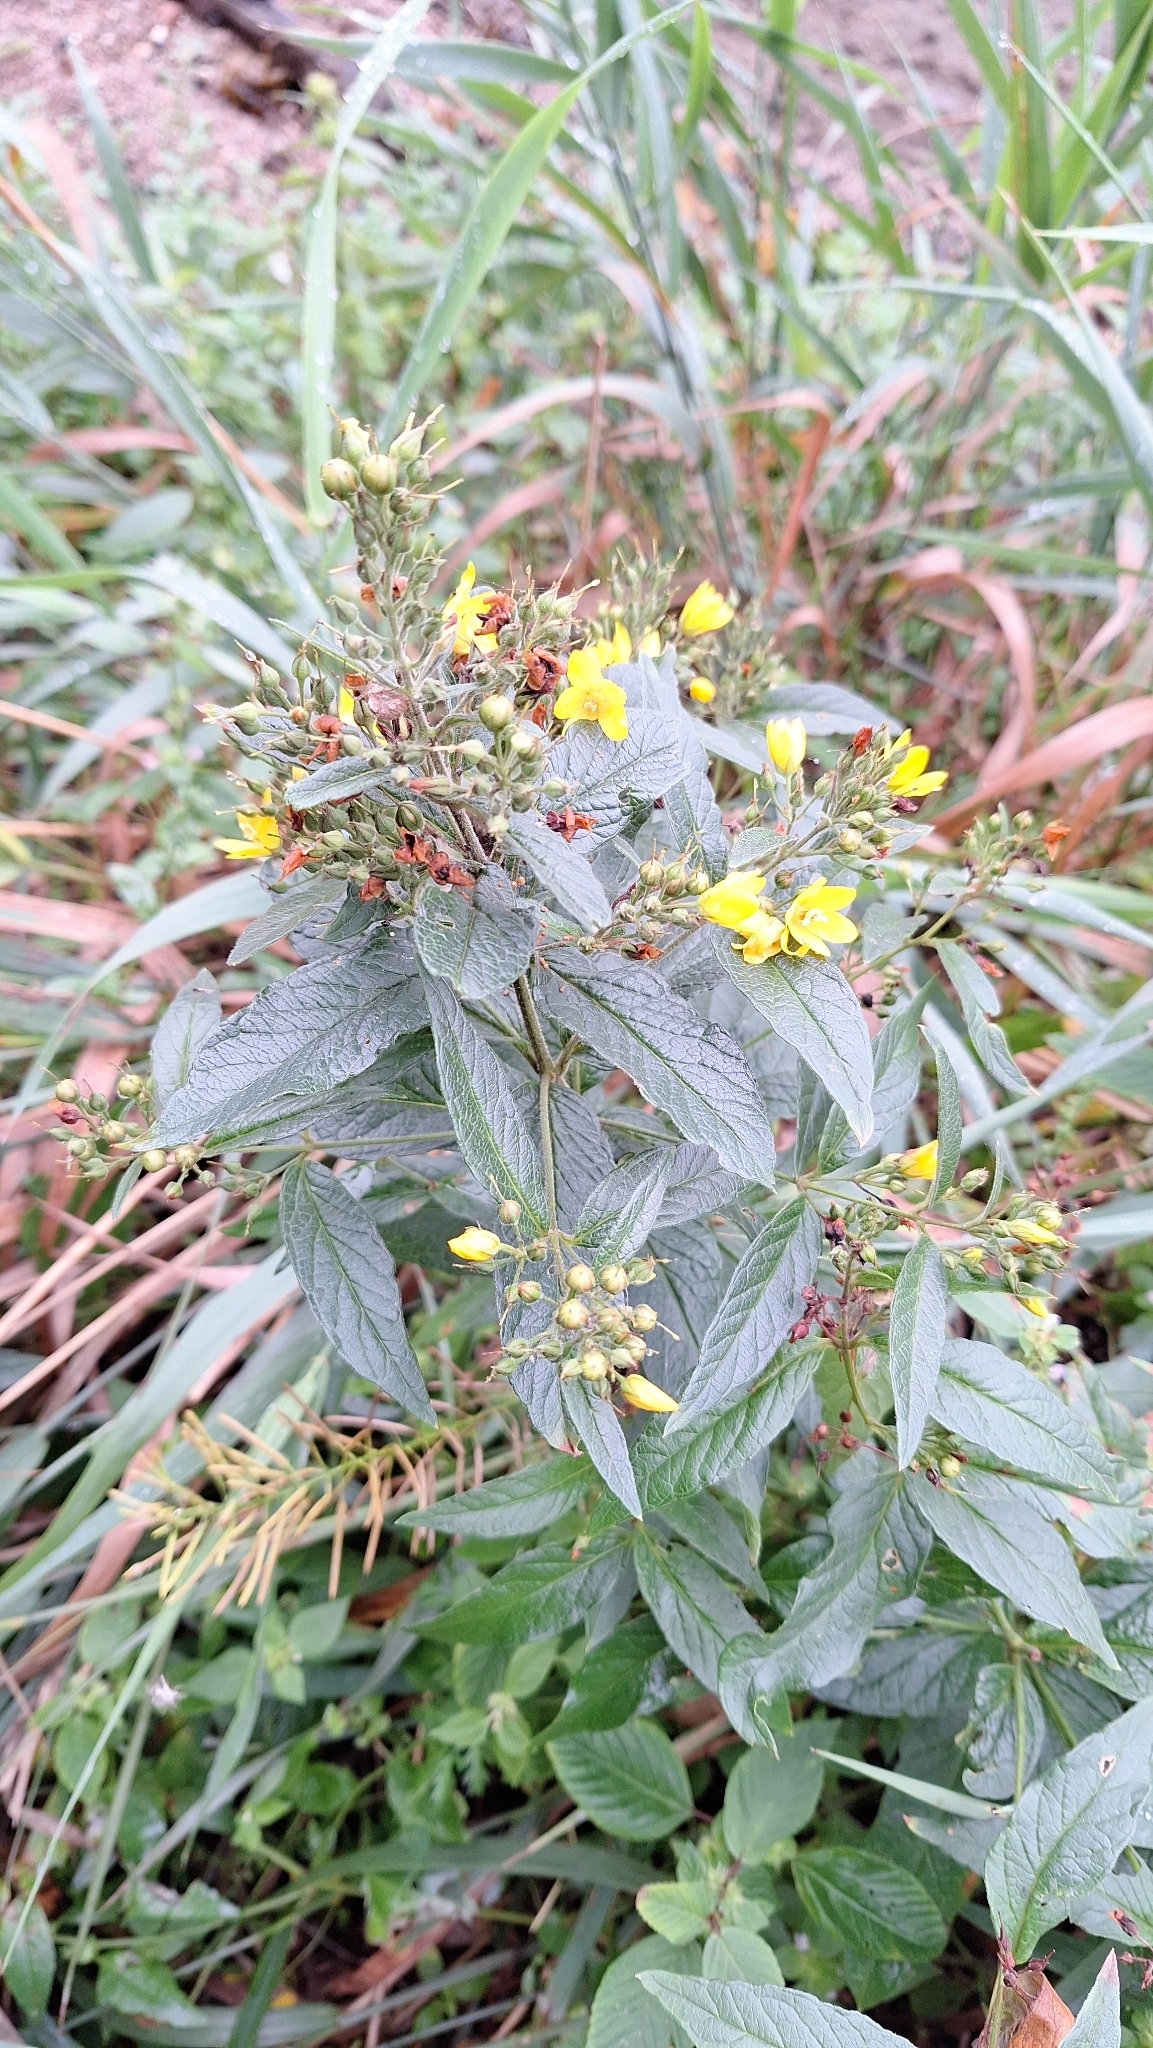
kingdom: Plantae
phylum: Tracheophyta
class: Magnoliopsida
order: Ericales
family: Primulaceae
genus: Lysimachia
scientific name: Lysimachia vulgaris
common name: Yellow loosestrife
